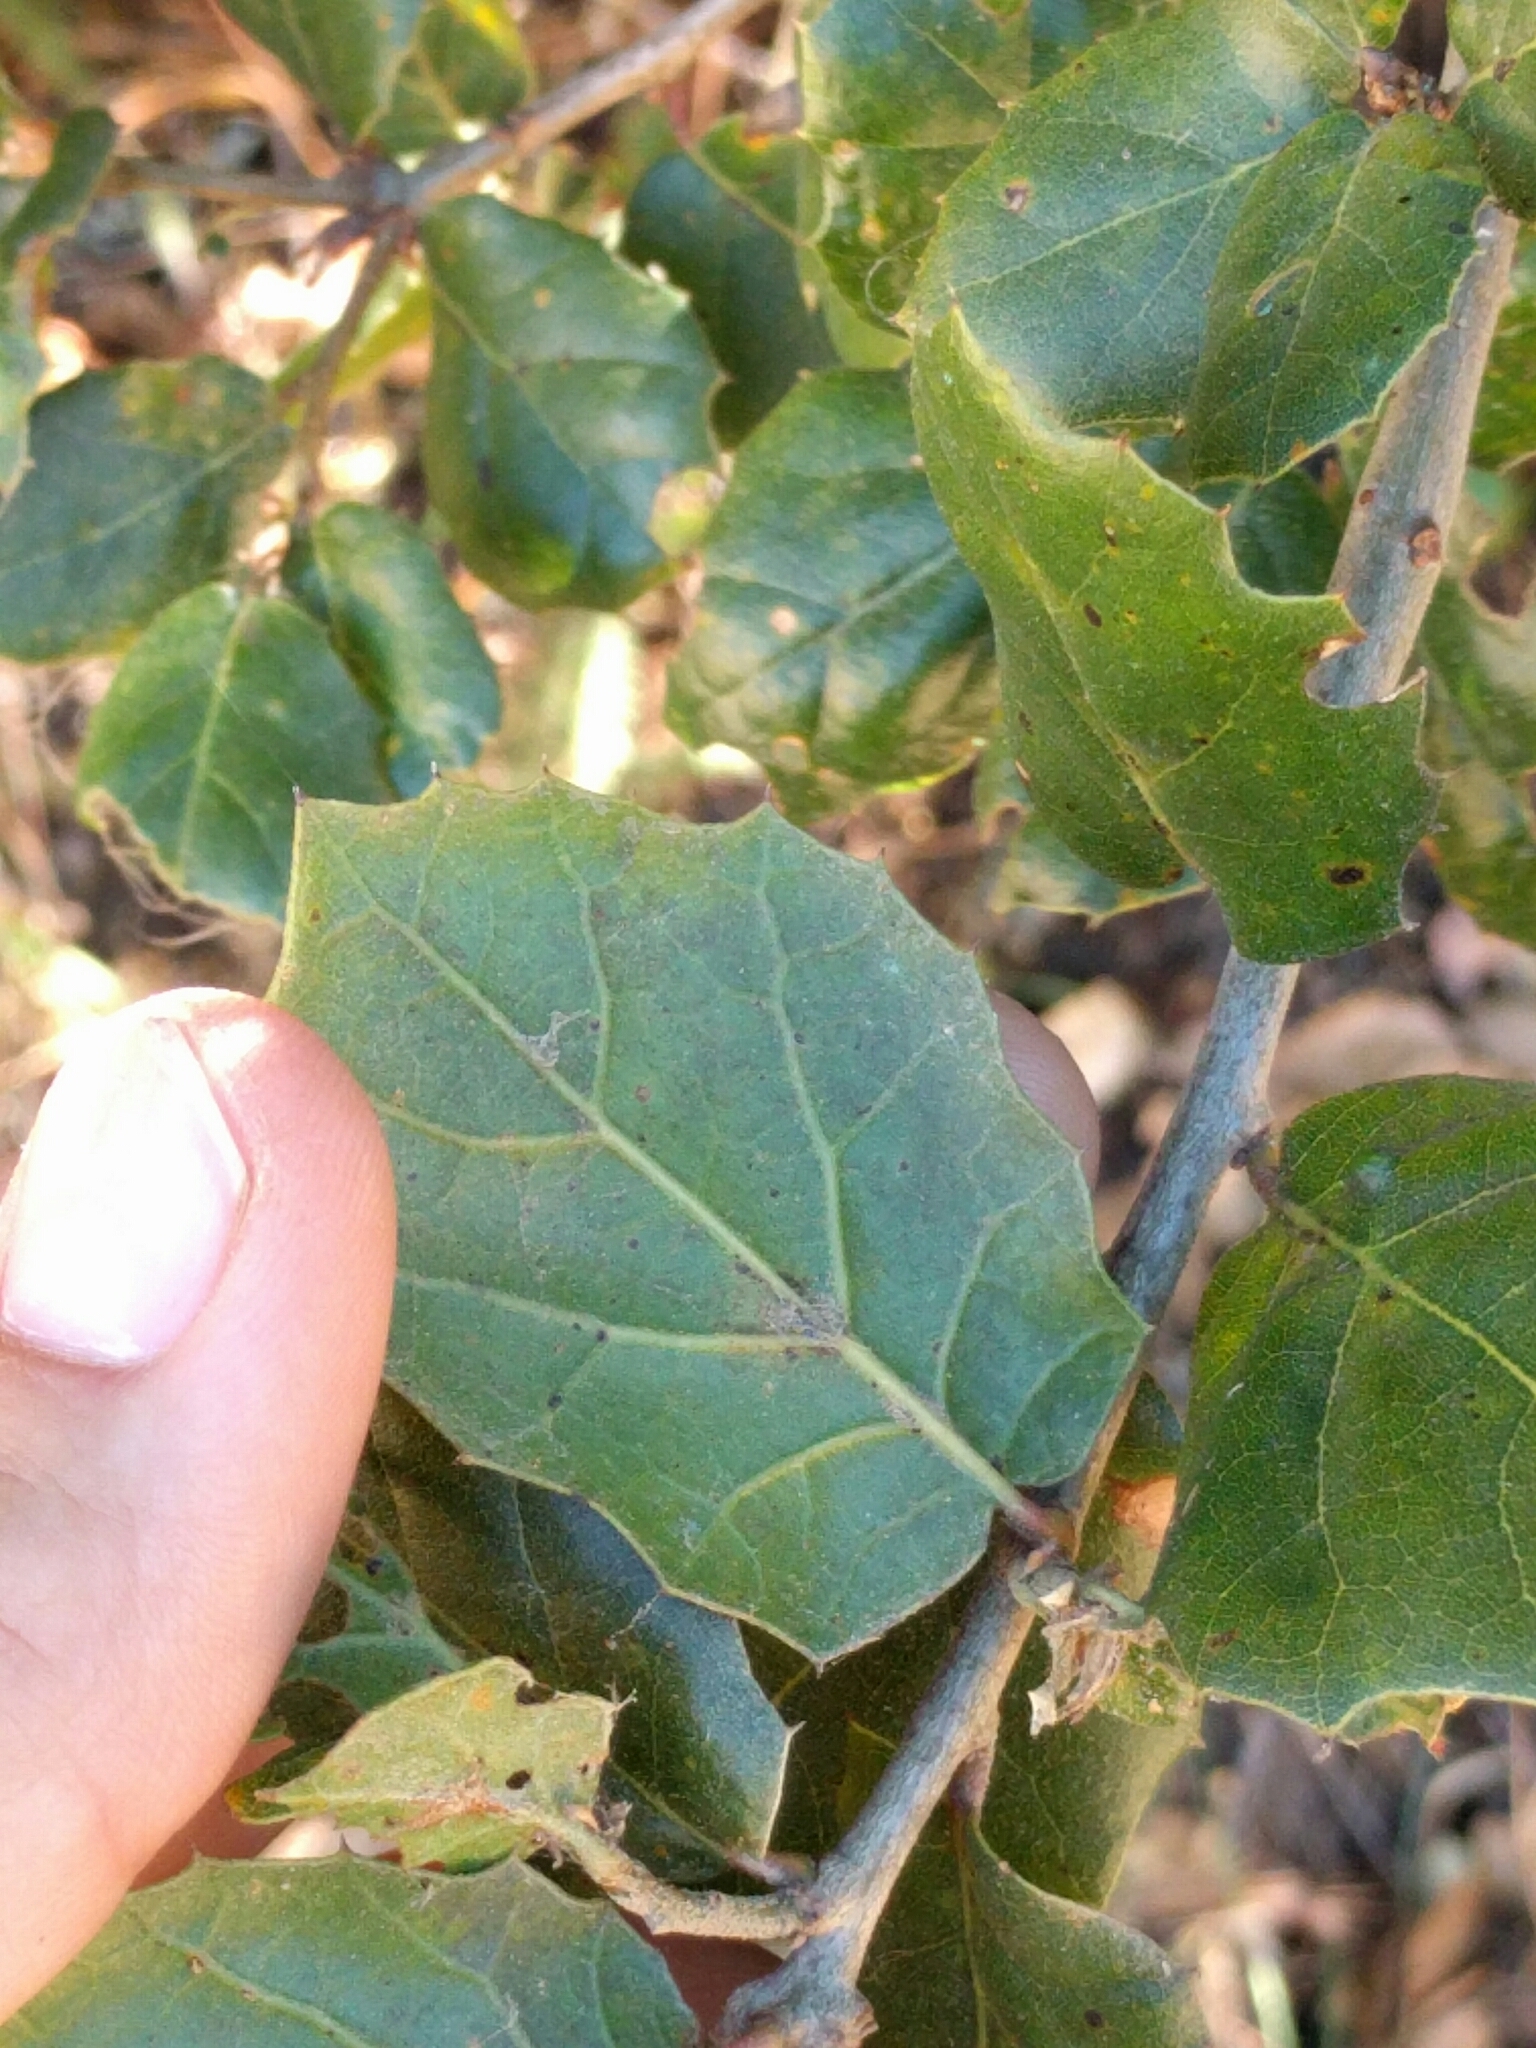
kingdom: Plantae
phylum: Tracheophyta
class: Magnoliopsida
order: Fagales
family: Fagaceae
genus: Quercus
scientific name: Quercus agrifolia
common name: California live oak
